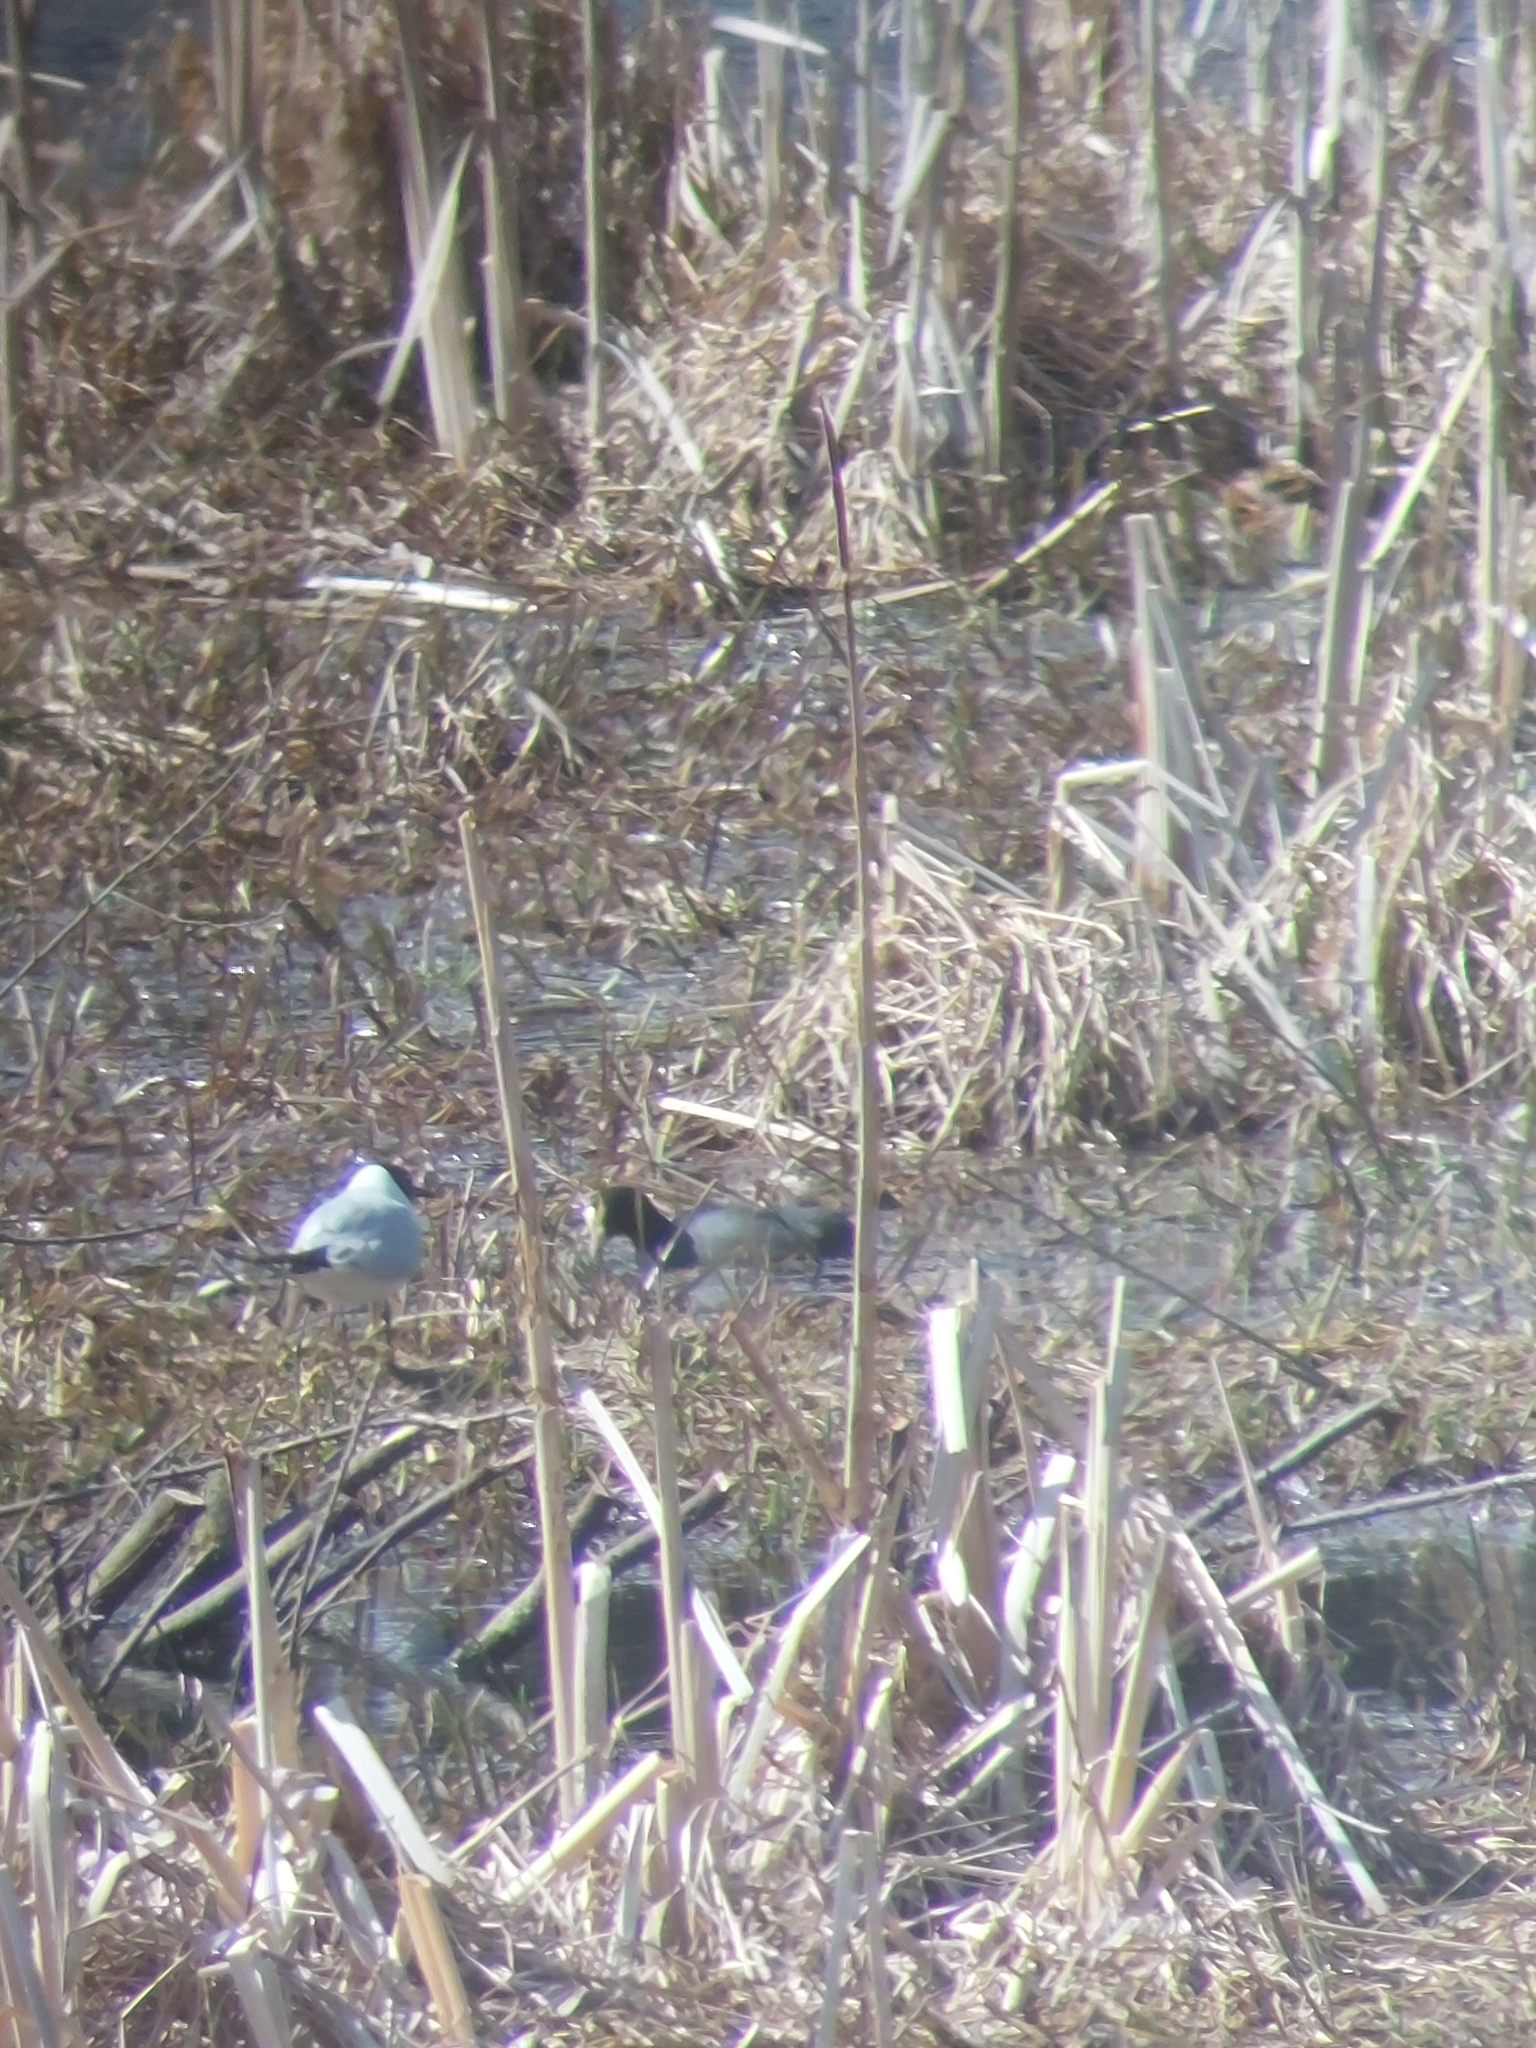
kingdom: Animalia
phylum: Chordata
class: Aves
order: Gruiformes
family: Rallidae
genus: Fulica
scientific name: Fulica atra
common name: Eurasian coot
